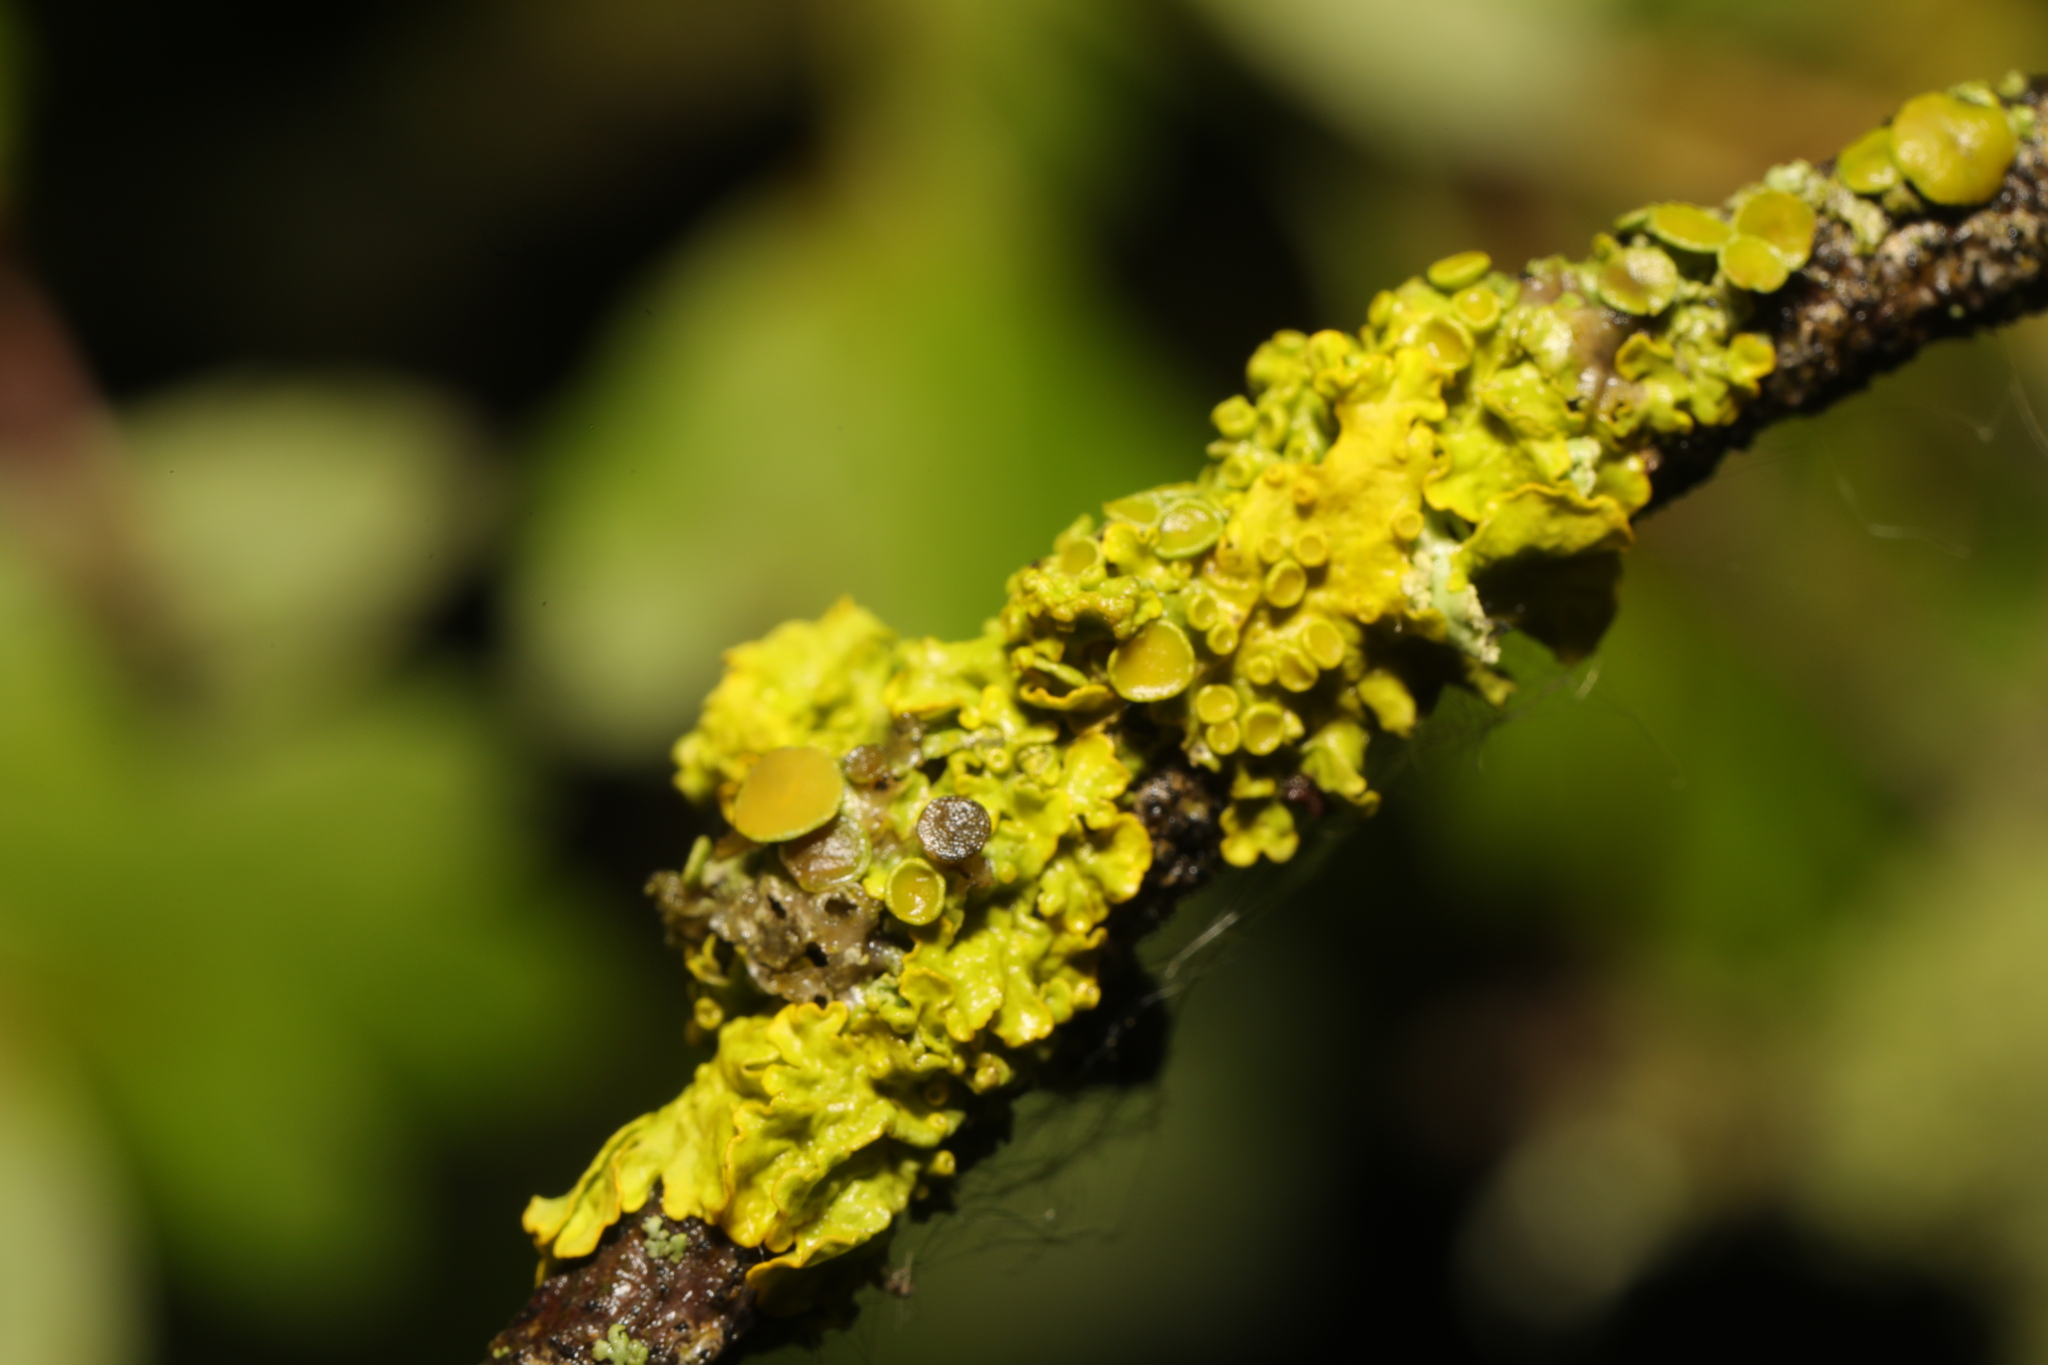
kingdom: Fungi
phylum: Ascomycota
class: Lecanoromycetes
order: Teloschistales
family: Teloschistaceae
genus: Xanthoria
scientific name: Xanthoria parietina
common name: Common orange lichen
